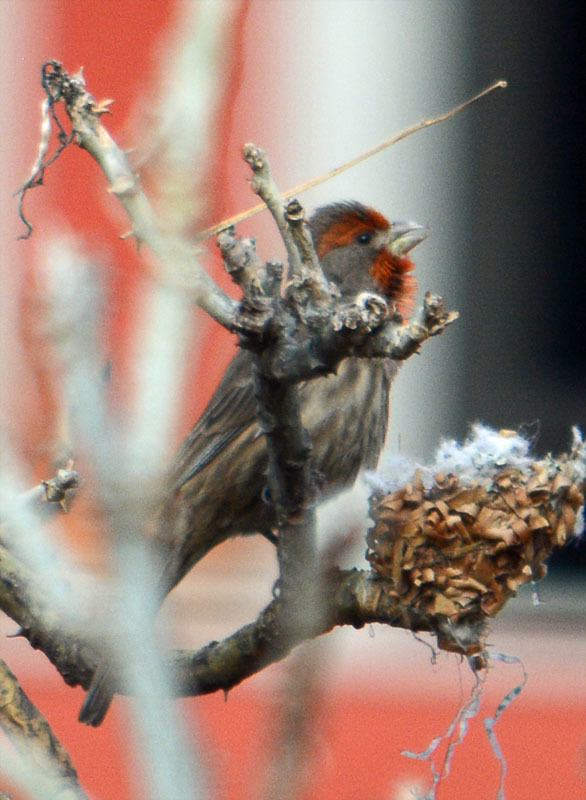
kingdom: Animalia
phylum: Chordata
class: Aves
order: Passeriformes
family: Fringillidae
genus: Haemorhous
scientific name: Haemorhous mexicanus
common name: House finch
